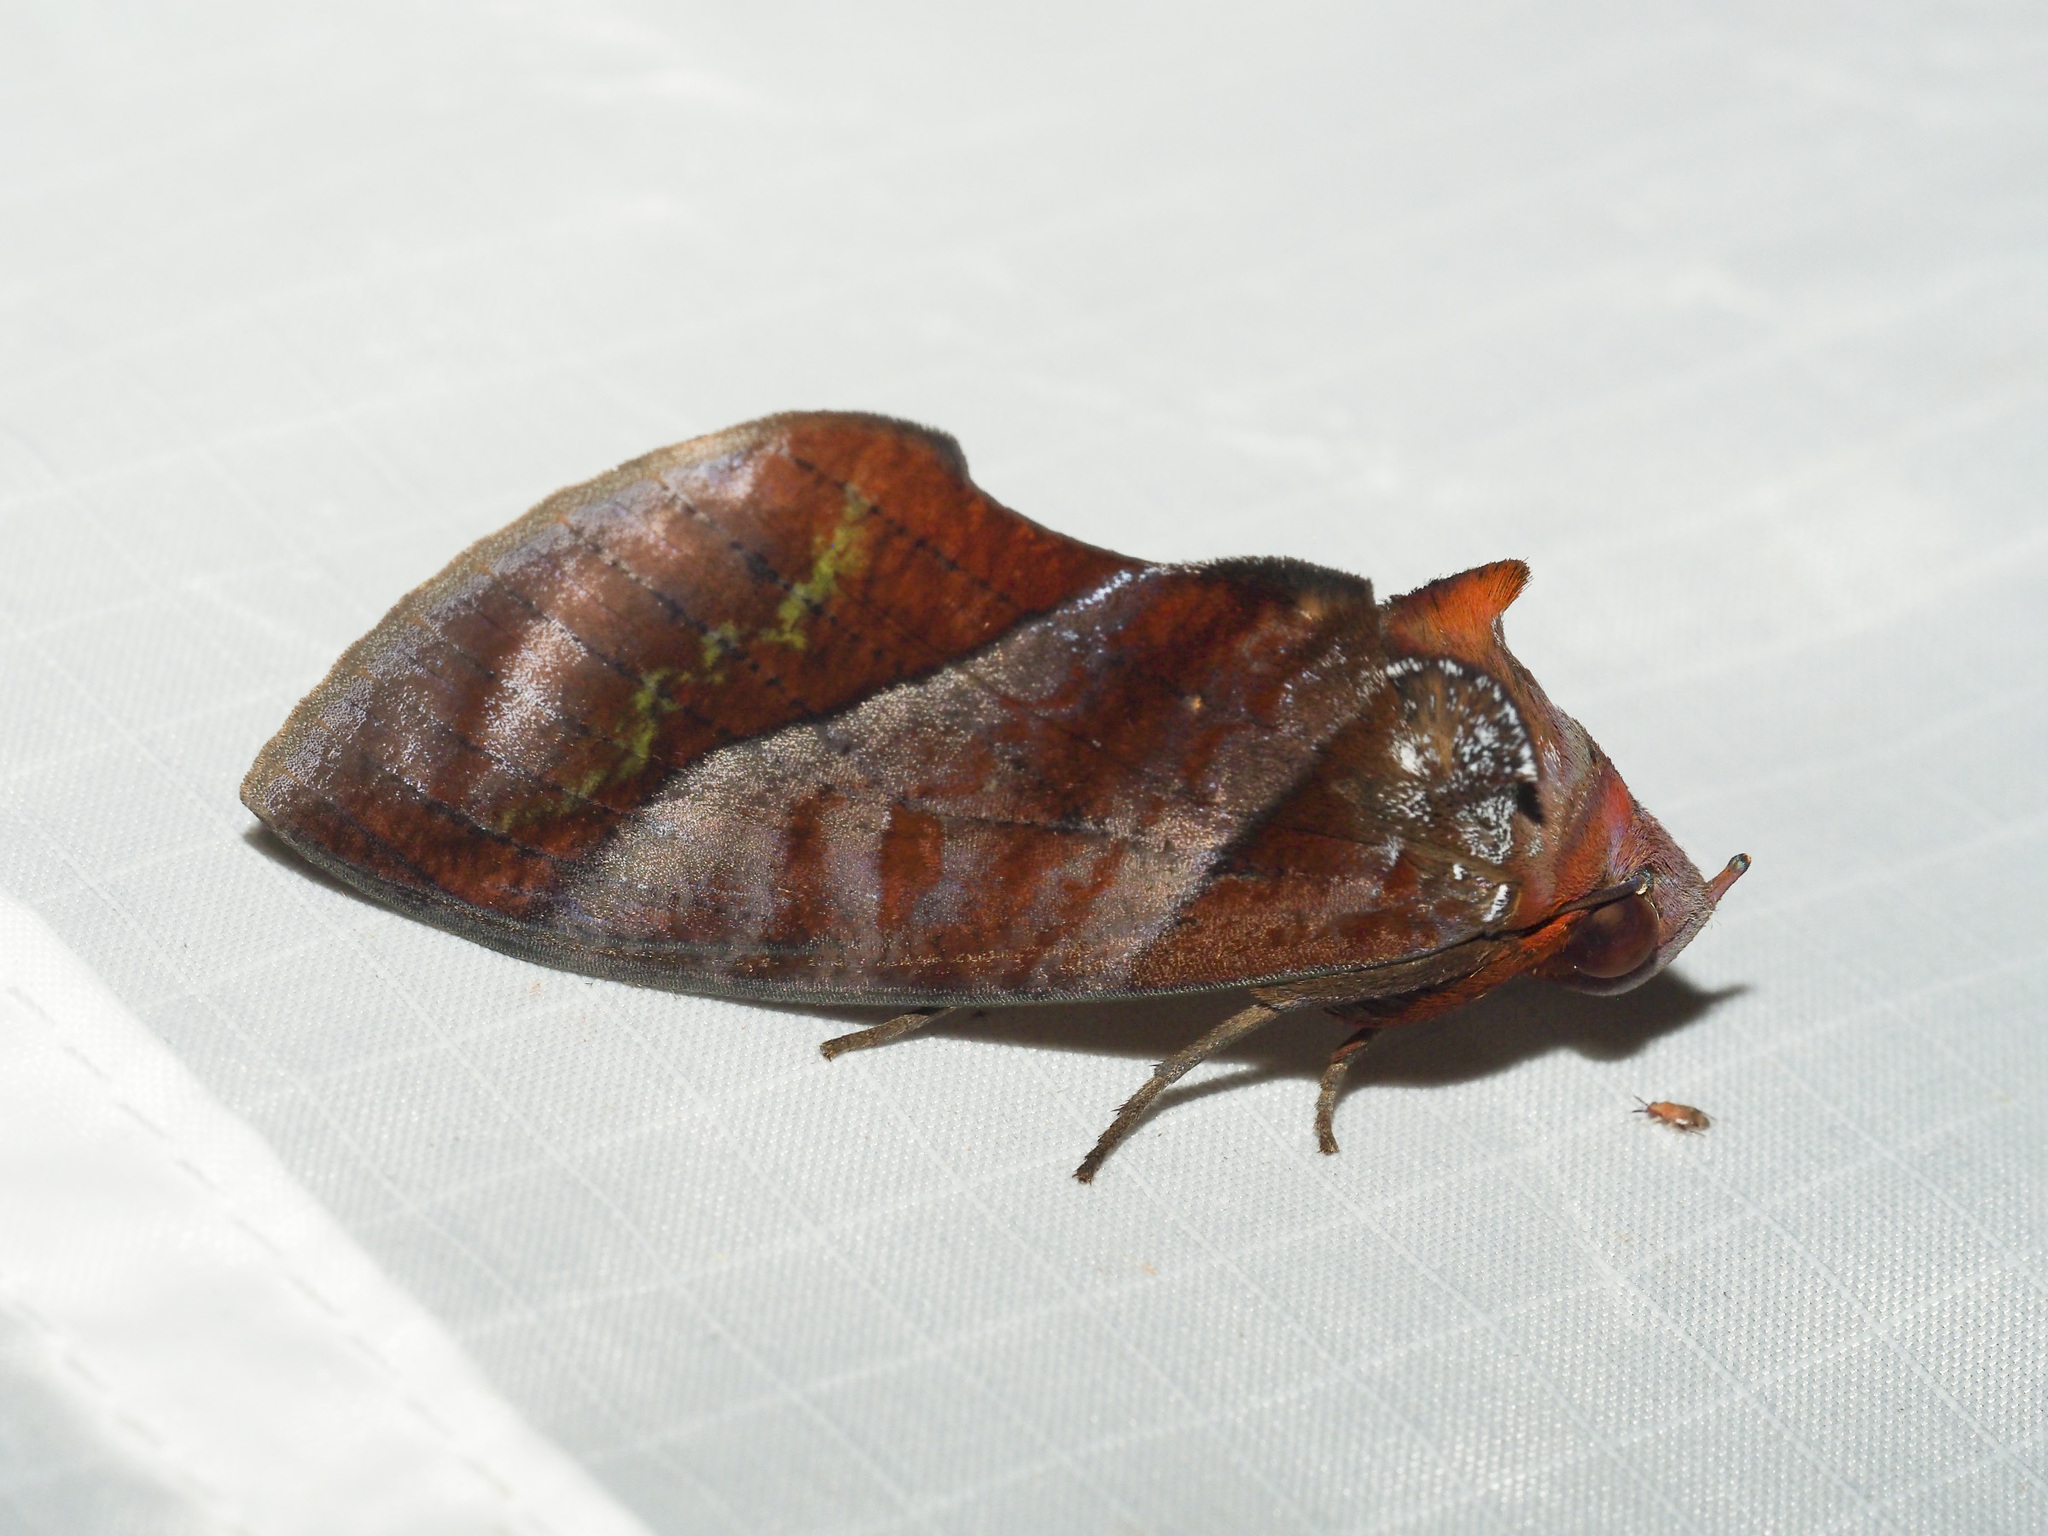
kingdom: Animalia
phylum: Arthropoda
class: Insecta
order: Lepidoptera
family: Erebidae
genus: Eudocima
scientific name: Eudocima homaena
